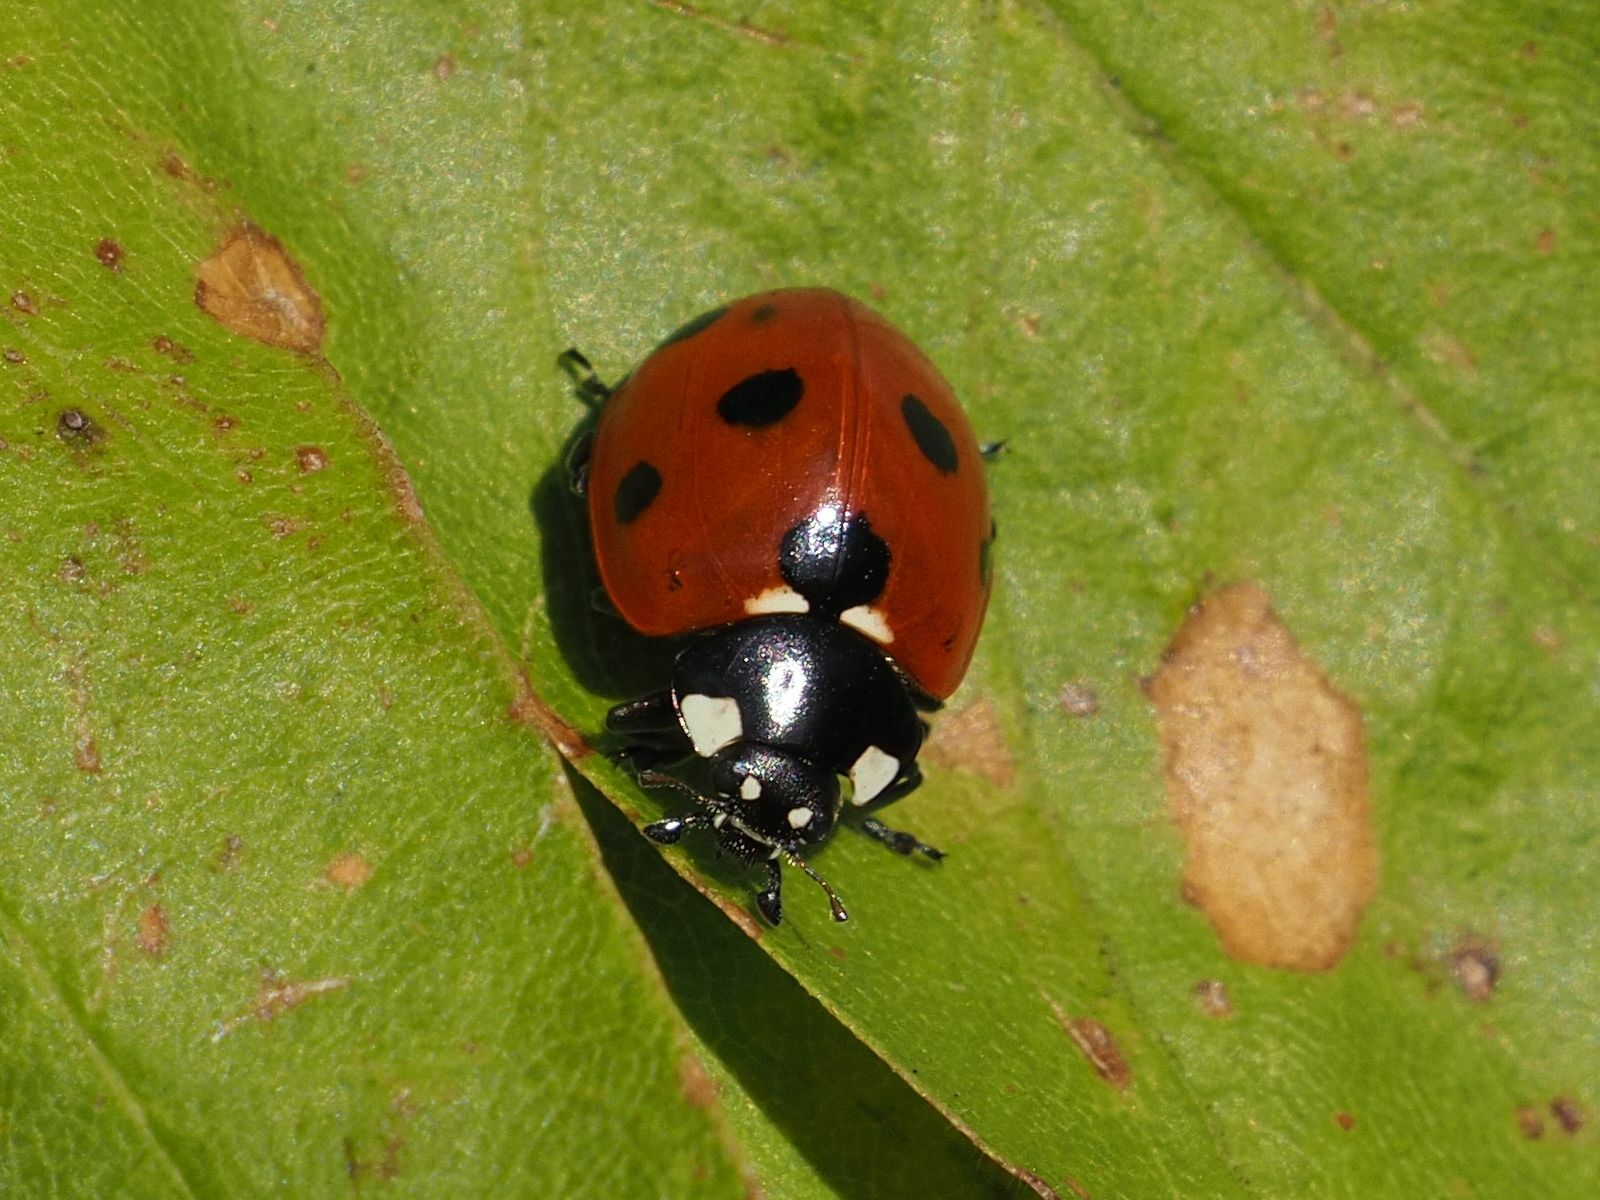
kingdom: Animalia
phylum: Arthropoda
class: Insecta
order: Coleoptera
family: Coccinellidae
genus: Coccinella
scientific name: Coccinella septempunctata
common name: Sevenspotted lady beetle
